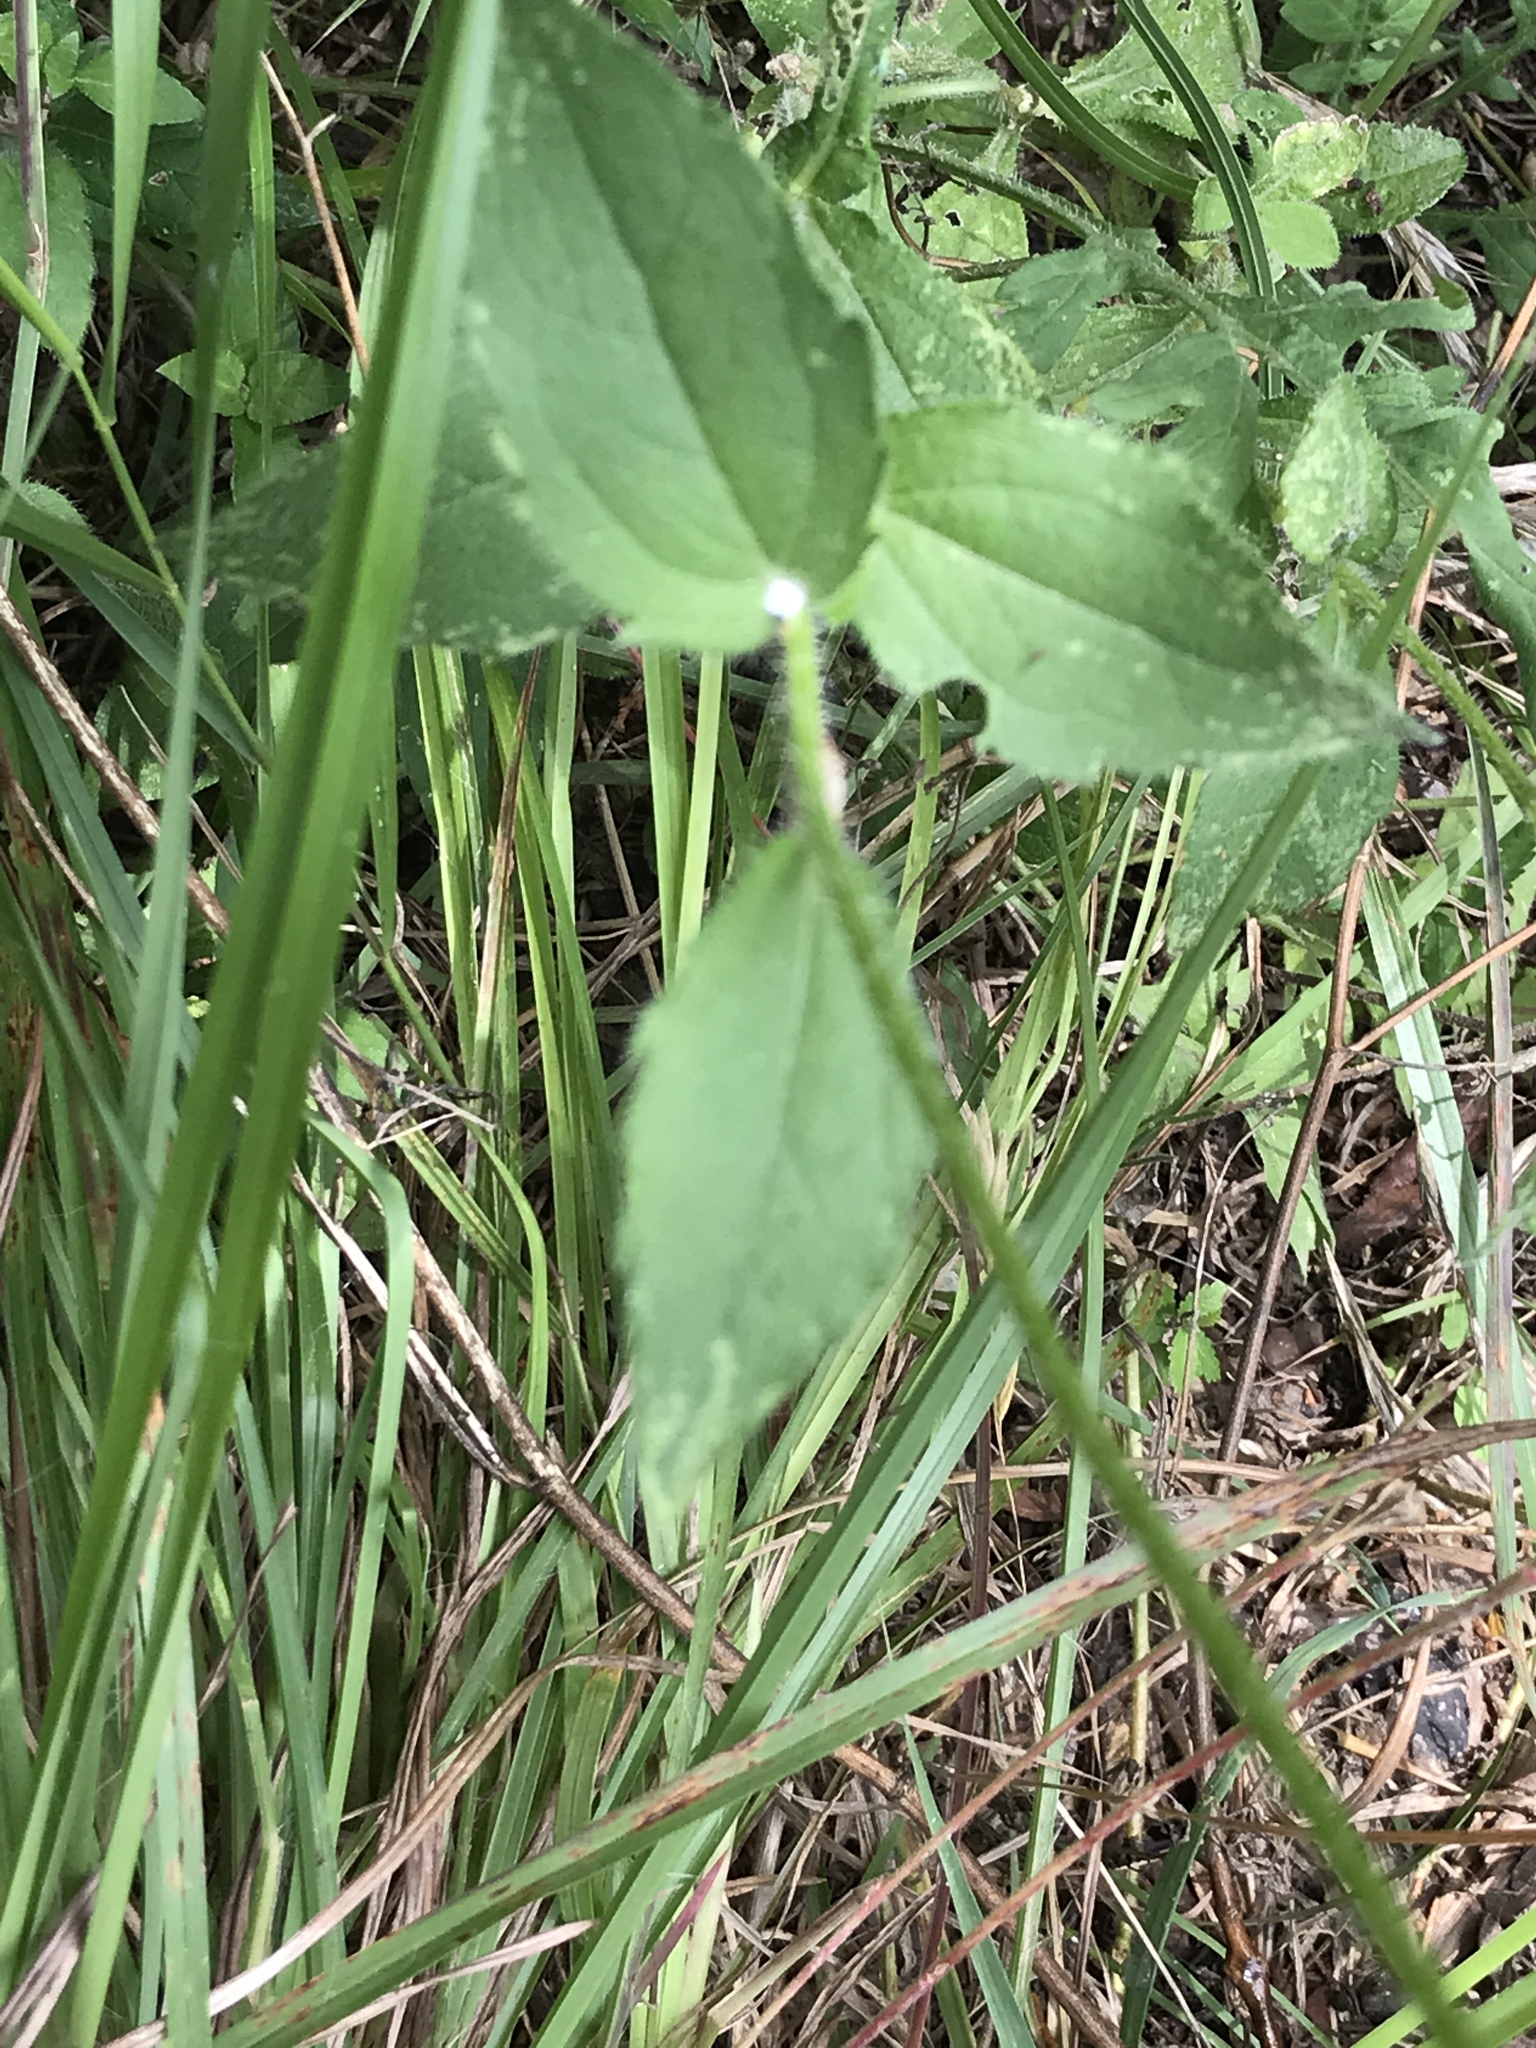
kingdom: Plantae
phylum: Tracheophyta
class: Magnoliopsida
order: Asterales
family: Asteraceae
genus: Rudbeckia
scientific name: Rudbeckia hirta
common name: Black-eyed-susan
